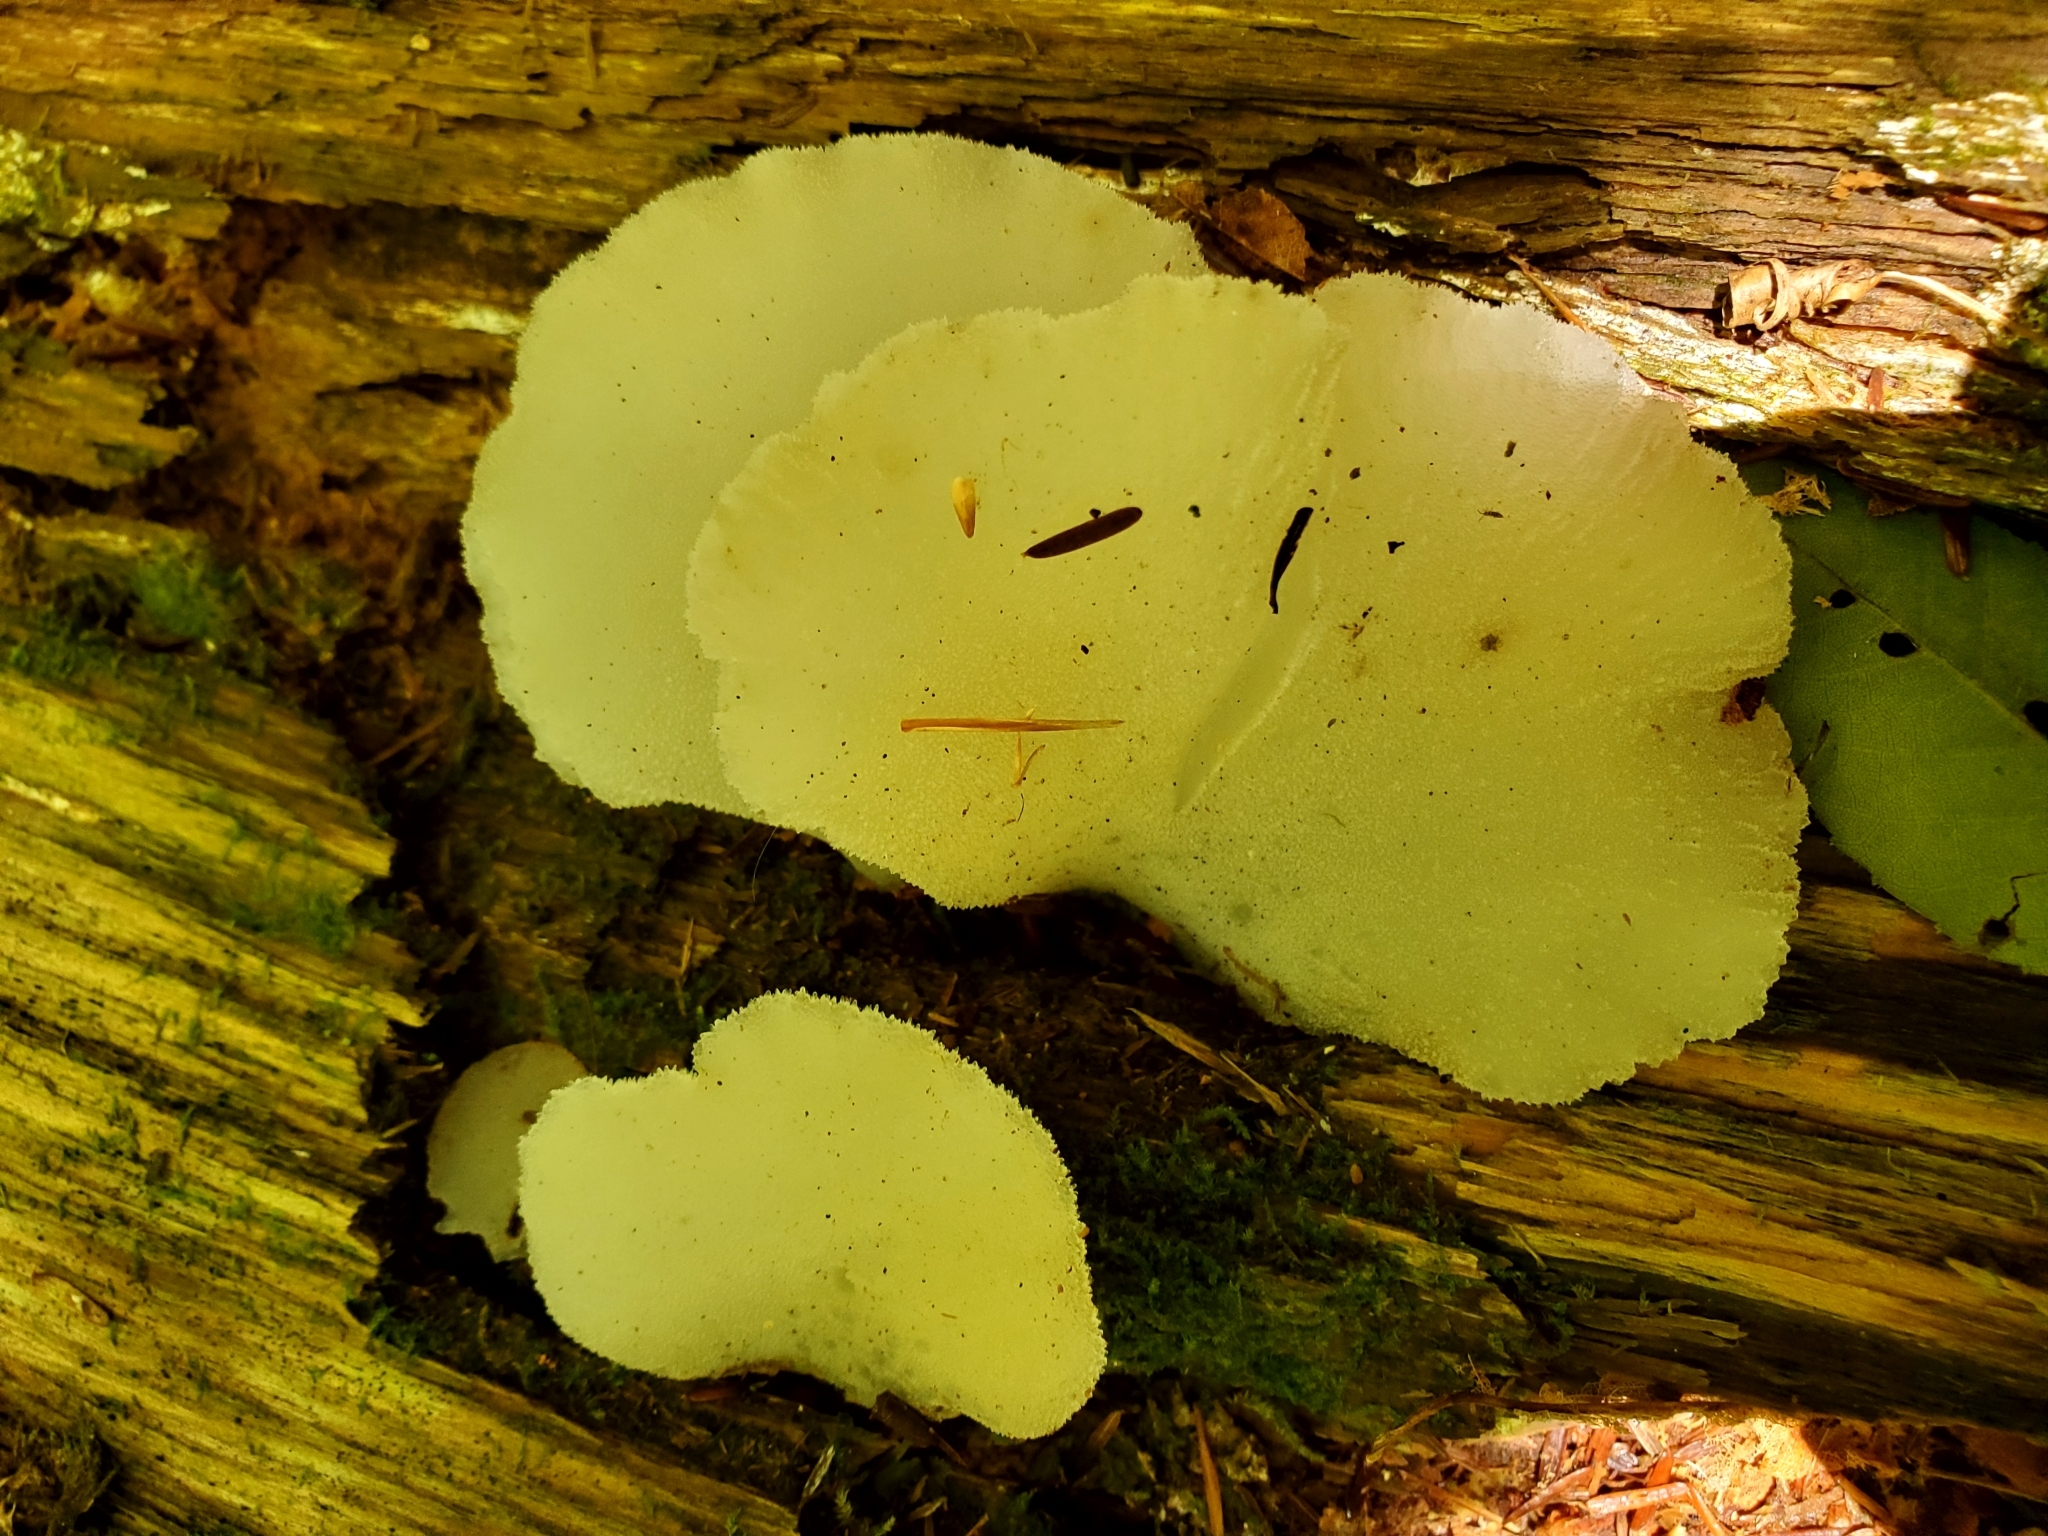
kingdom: Fungi
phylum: Basidiomycota
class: Agaricomycetes
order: Auriculariales
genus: Pseudohydnum
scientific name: Pseudohydnum gelatinosum
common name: Jelly tongue
